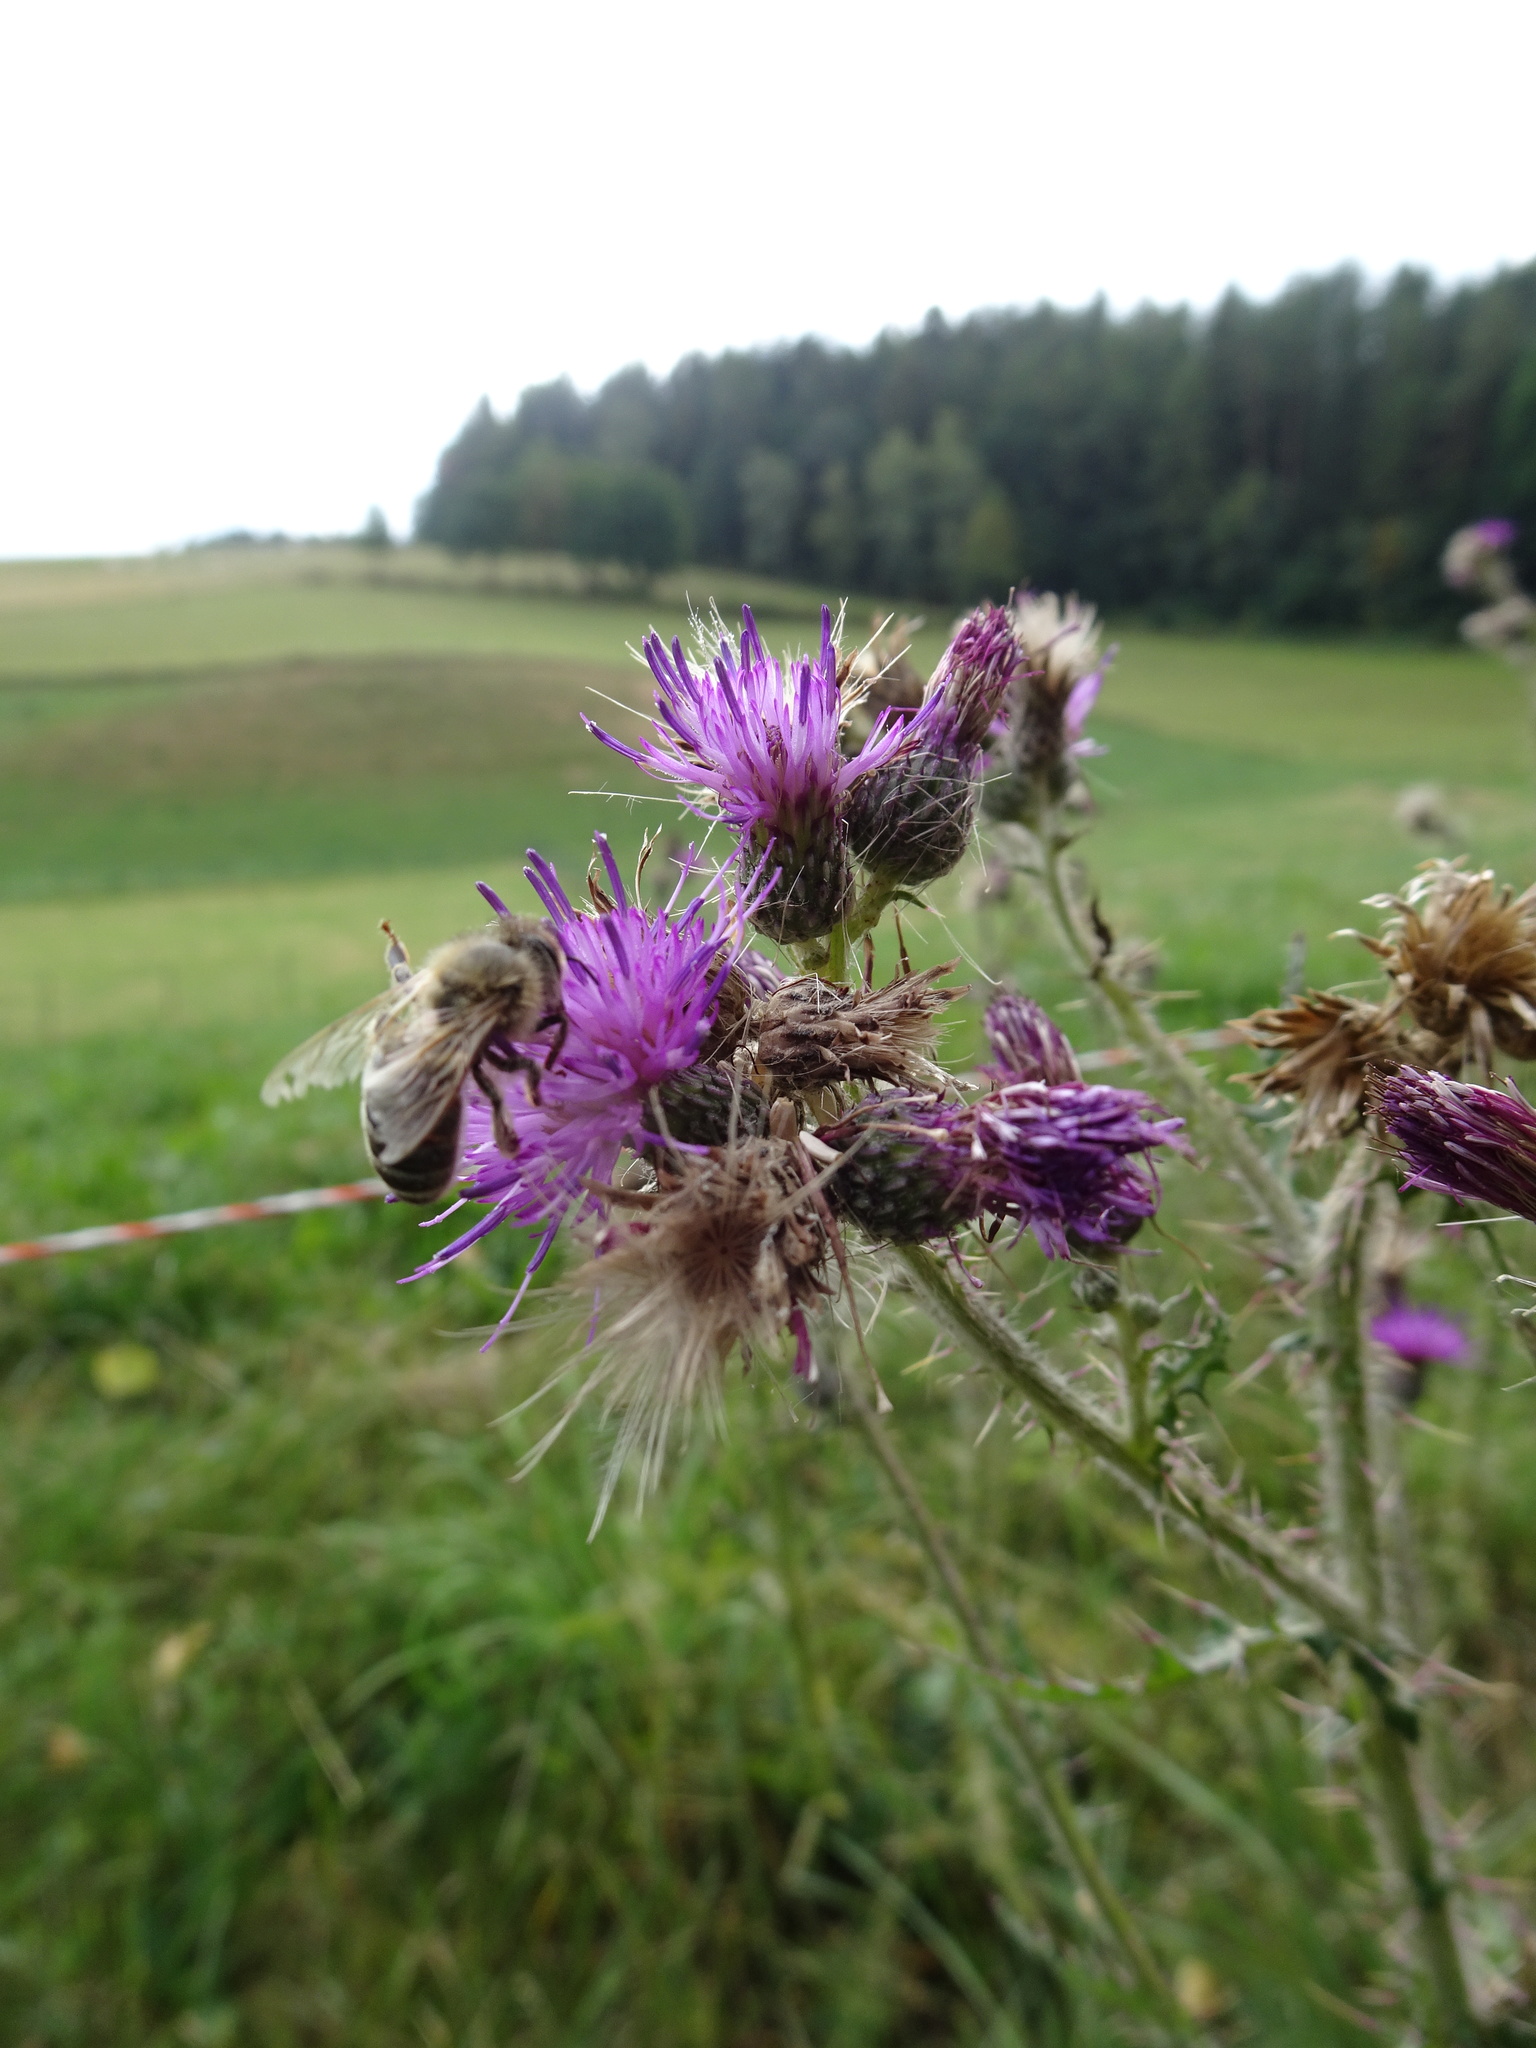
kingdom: Plantae
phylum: Tracheophyta
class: Magnoliopsida
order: Asterales
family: Asteraceae
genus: Cirsium
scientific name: Cirsium palustre
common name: Marsh thistle
